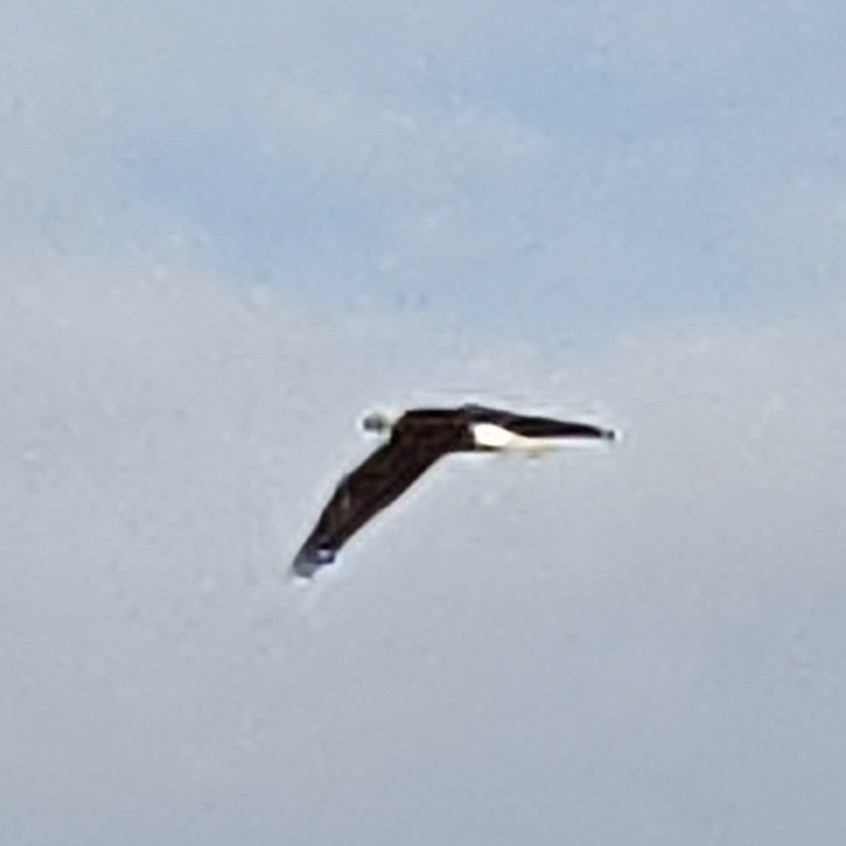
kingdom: Animalia
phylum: Chordata
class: Aves
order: Accipitriformes
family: Accipitridae
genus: Haliaeetus
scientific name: Haliaeetus leucocephalus
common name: Bald eagle
